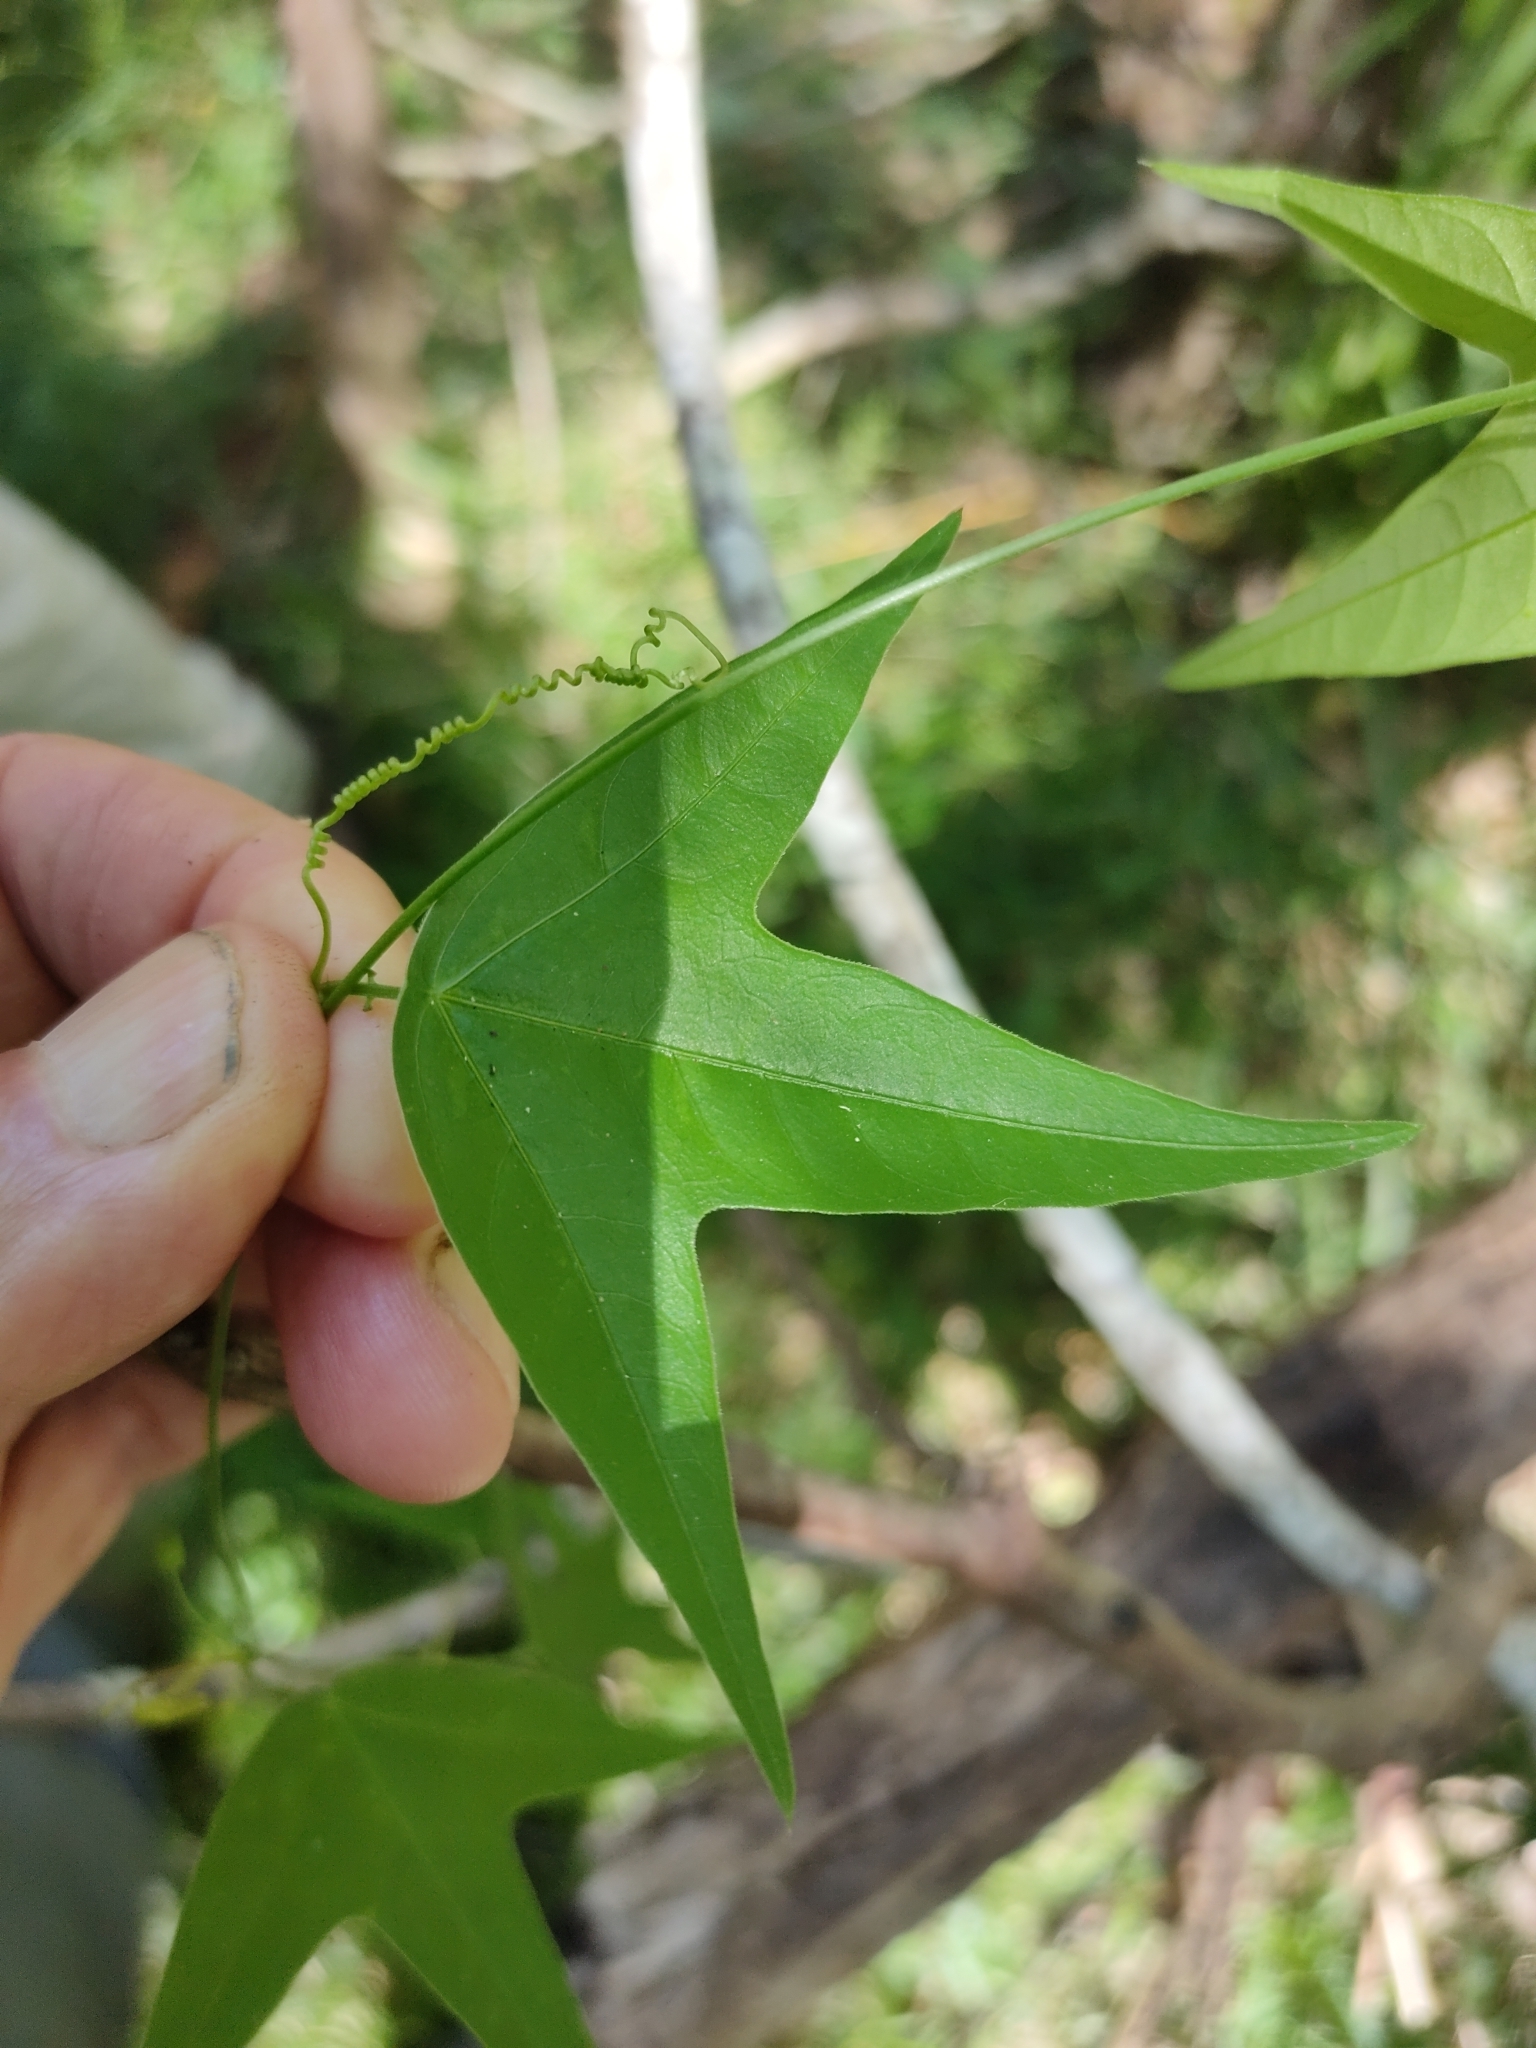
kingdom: Plantae
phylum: Tracheophyta
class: Magnoliopsida
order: Malpighiales
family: Passifloraceae
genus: Passiflora
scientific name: Passiflora suberosa
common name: Wild passionfruit
